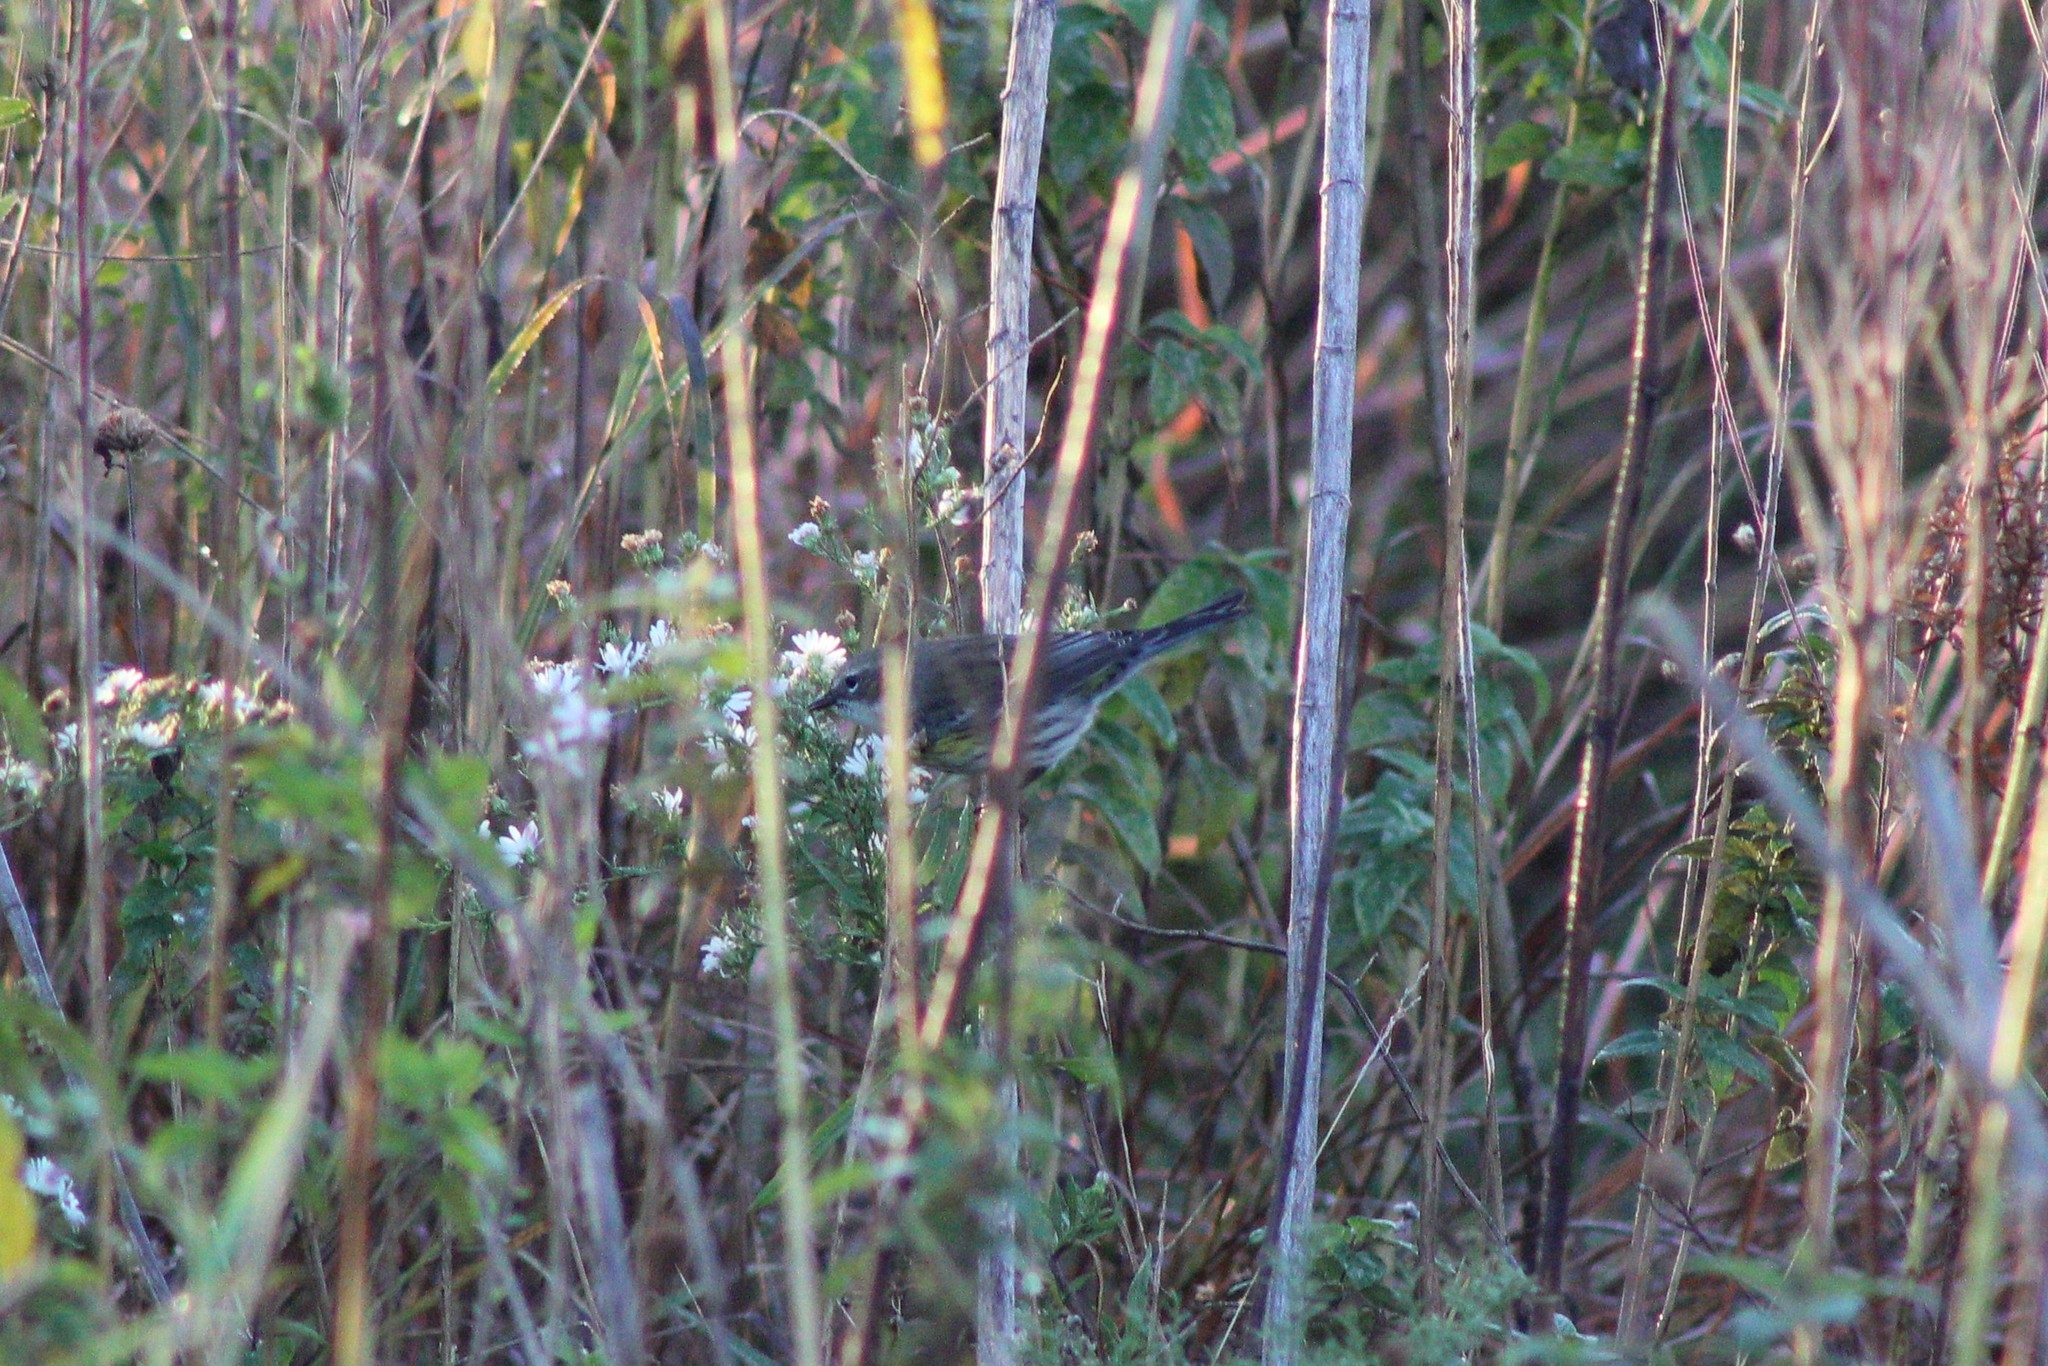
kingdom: Animalia
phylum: Chordata
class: Aves
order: Passeriformes
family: Parulidae
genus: Setophaga
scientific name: Setophaga coronata
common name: Myrtle warbler
